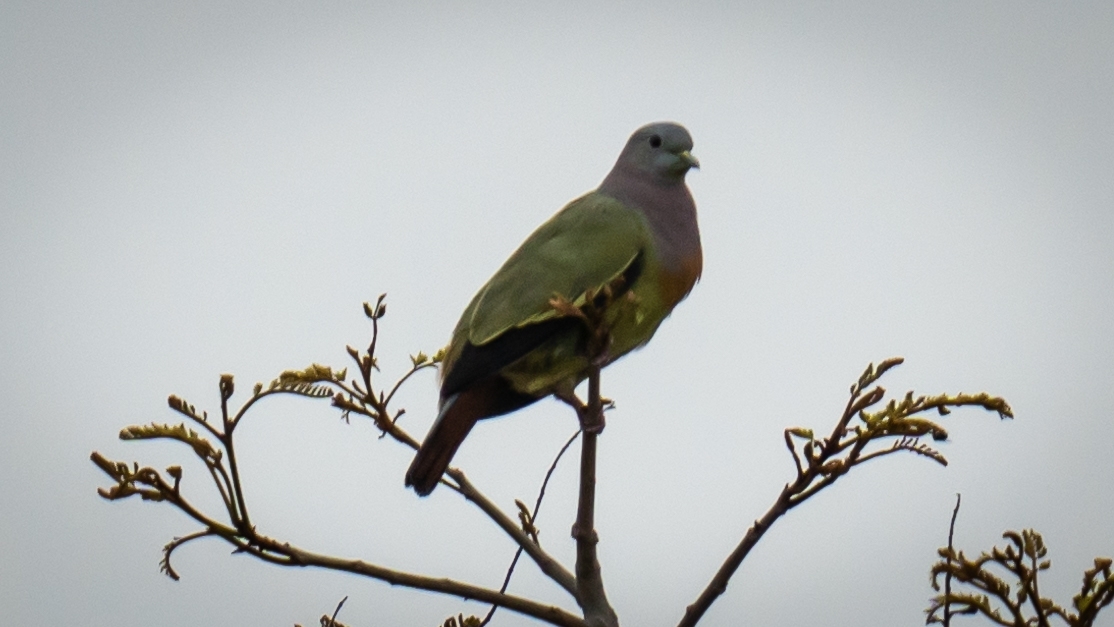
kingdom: Animalia
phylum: Chordata
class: Aves
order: Columbiformes
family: Columbidae
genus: Treron
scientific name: Treron vernans
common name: Pink-necked green pigeon
